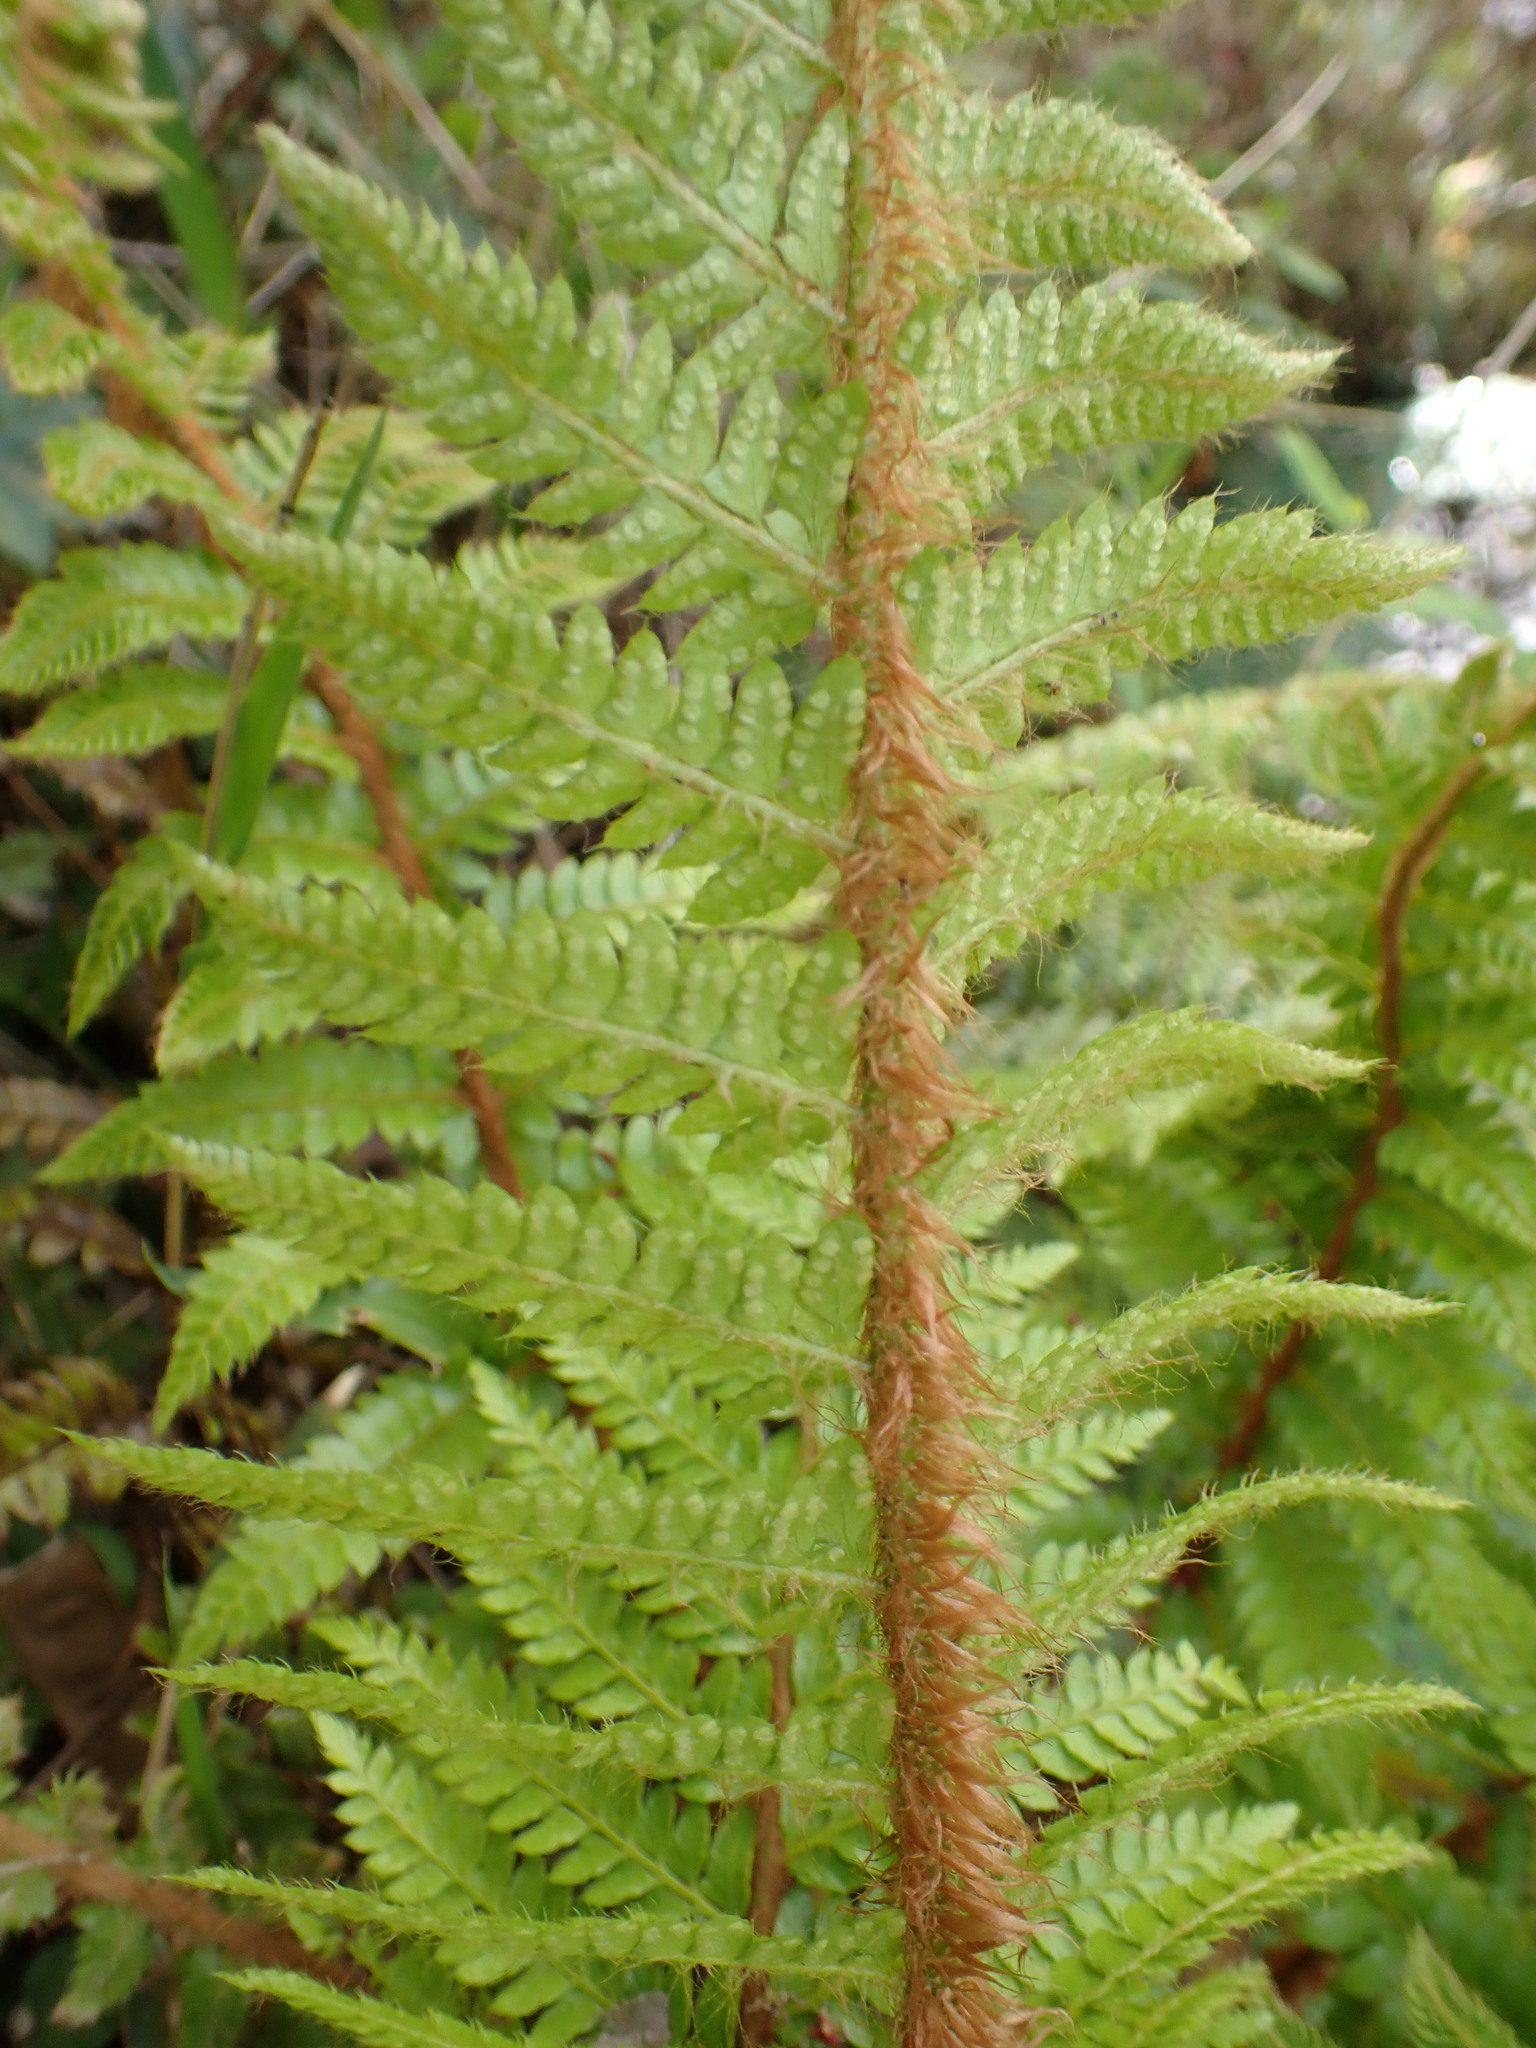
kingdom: Plantae
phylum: Tracheophyta
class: Polypodiopsida
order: Polypodiales
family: Dryopteridaceae
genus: Polystichum
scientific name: Polystichum luctuosum
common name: Korean rockfern
